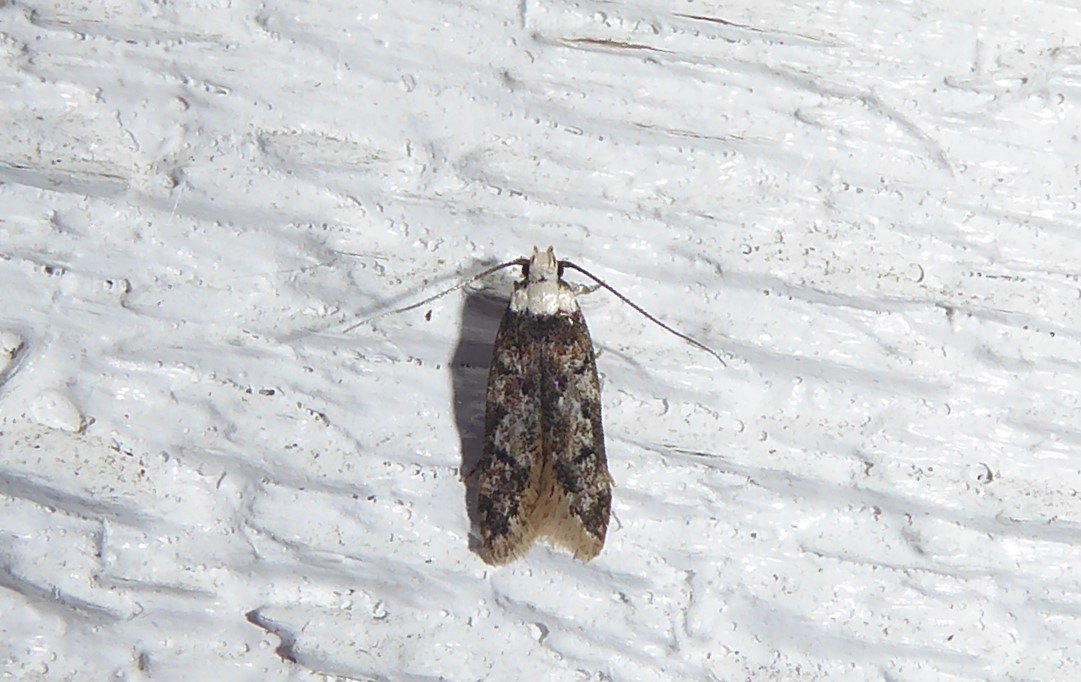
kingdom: Animalia
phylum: Arthropoda
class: Insecta
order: Lepidoptera
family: Oecophoridae
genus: Endrosis
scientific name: Endrosis sarcitrella
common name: White-shouldered house moth
